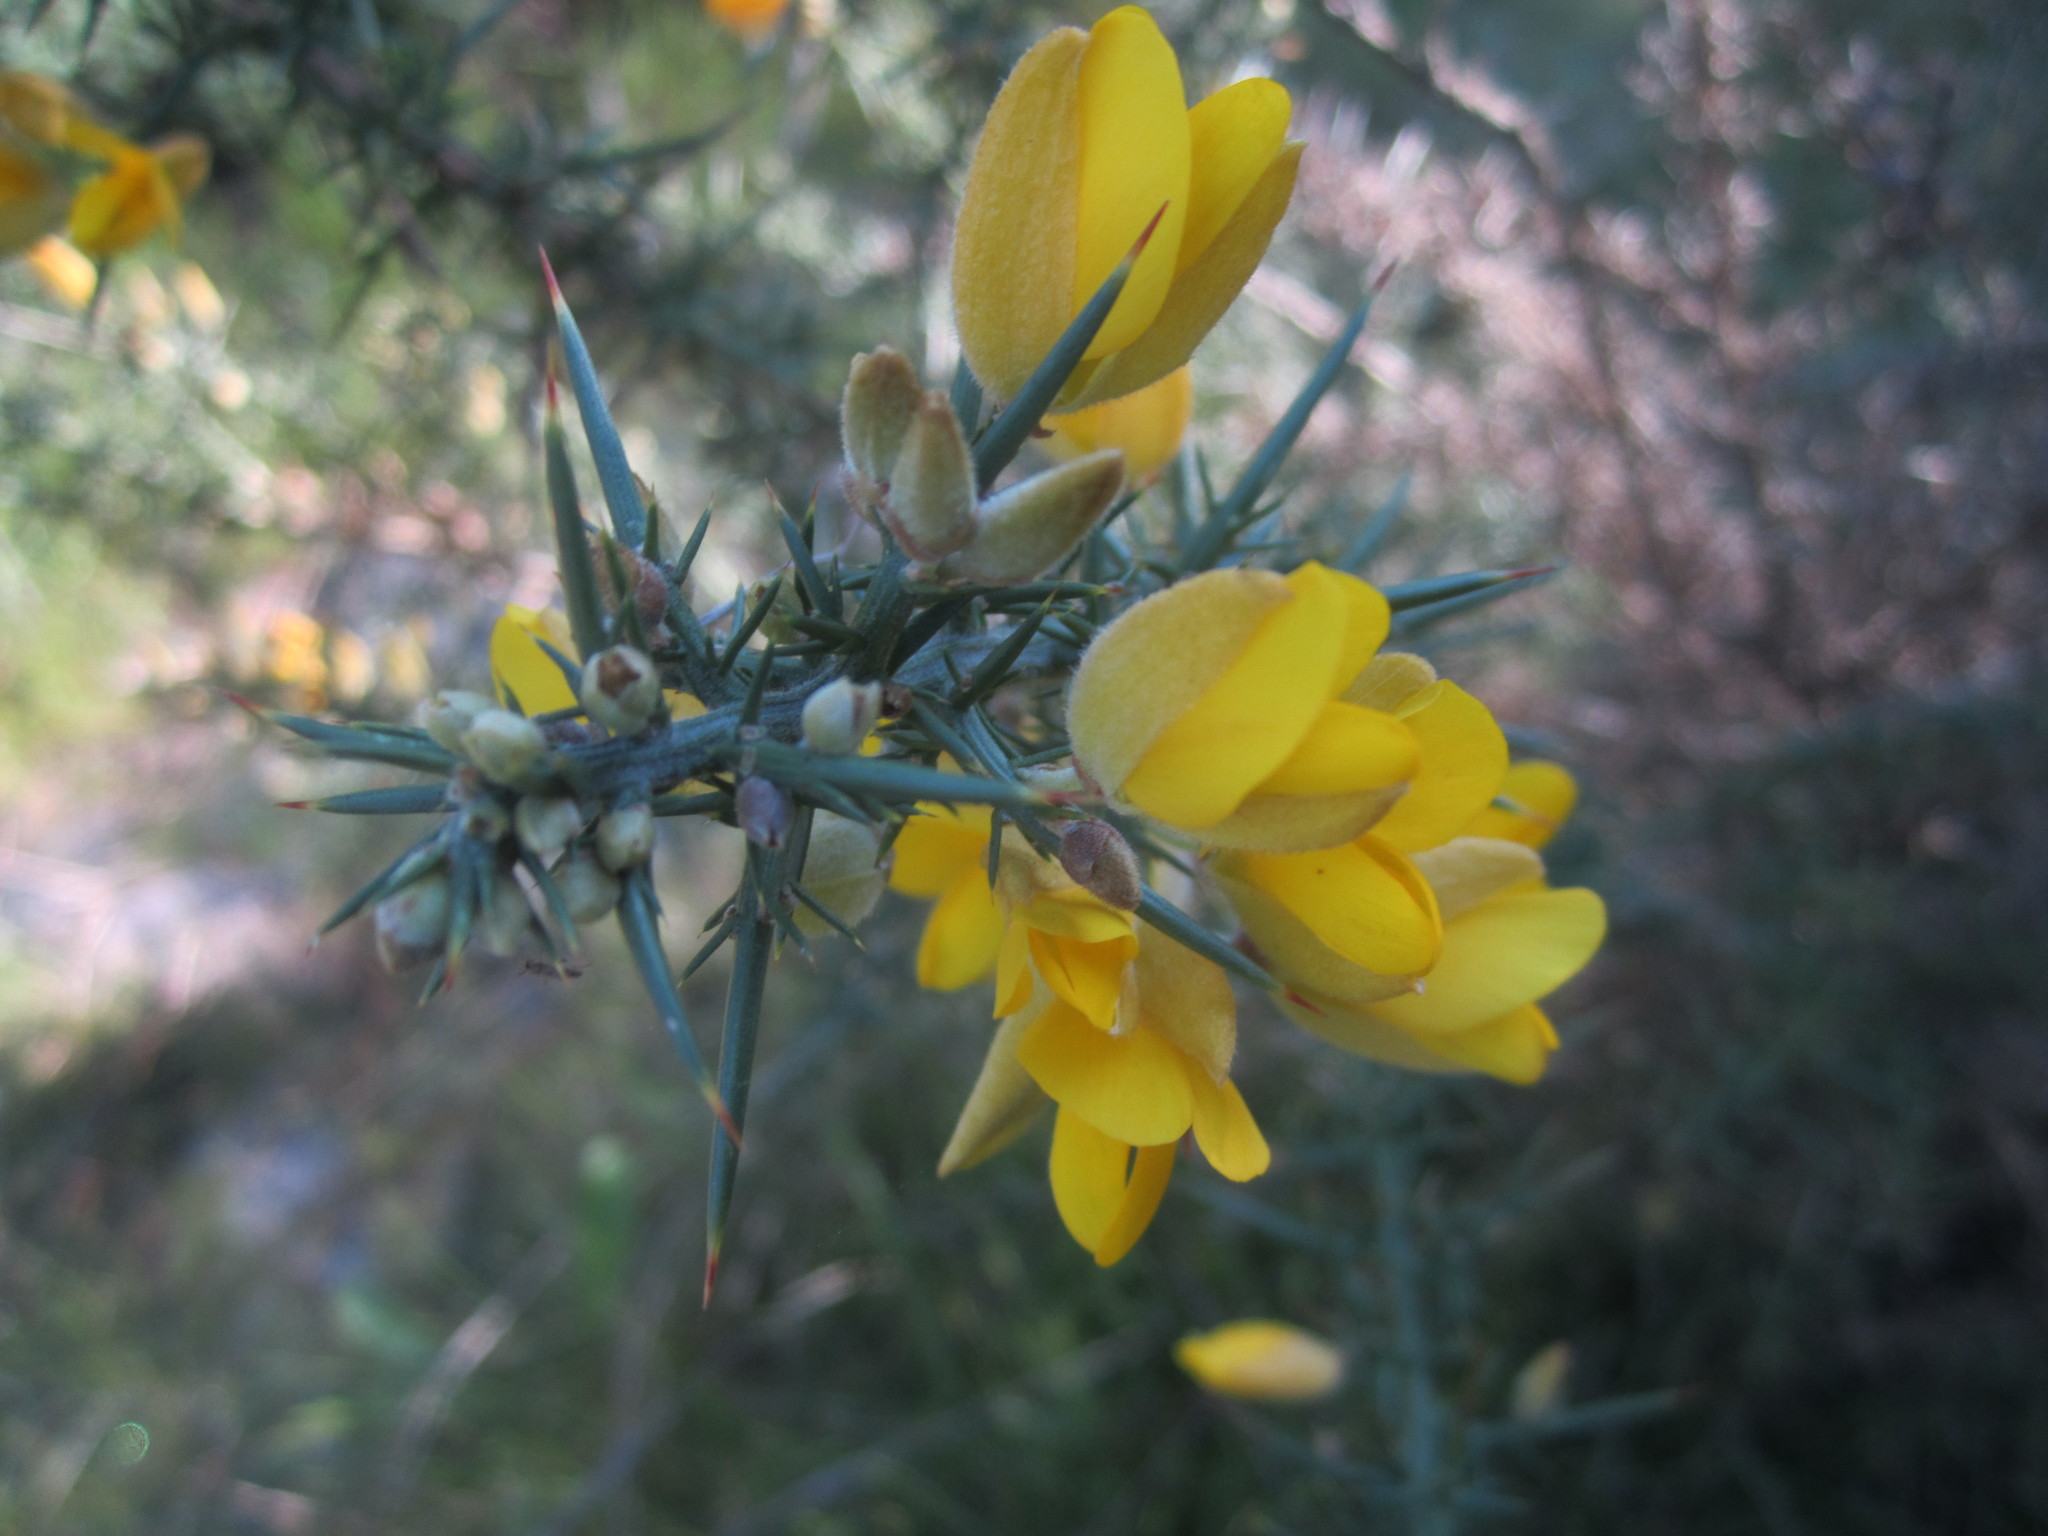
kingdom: Plantae
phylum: Tracheophyta
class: Magnoliopsida
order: Fabales
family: Fabaceae
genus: Ulex
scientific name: Ulex europaeus
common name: Common gorse
